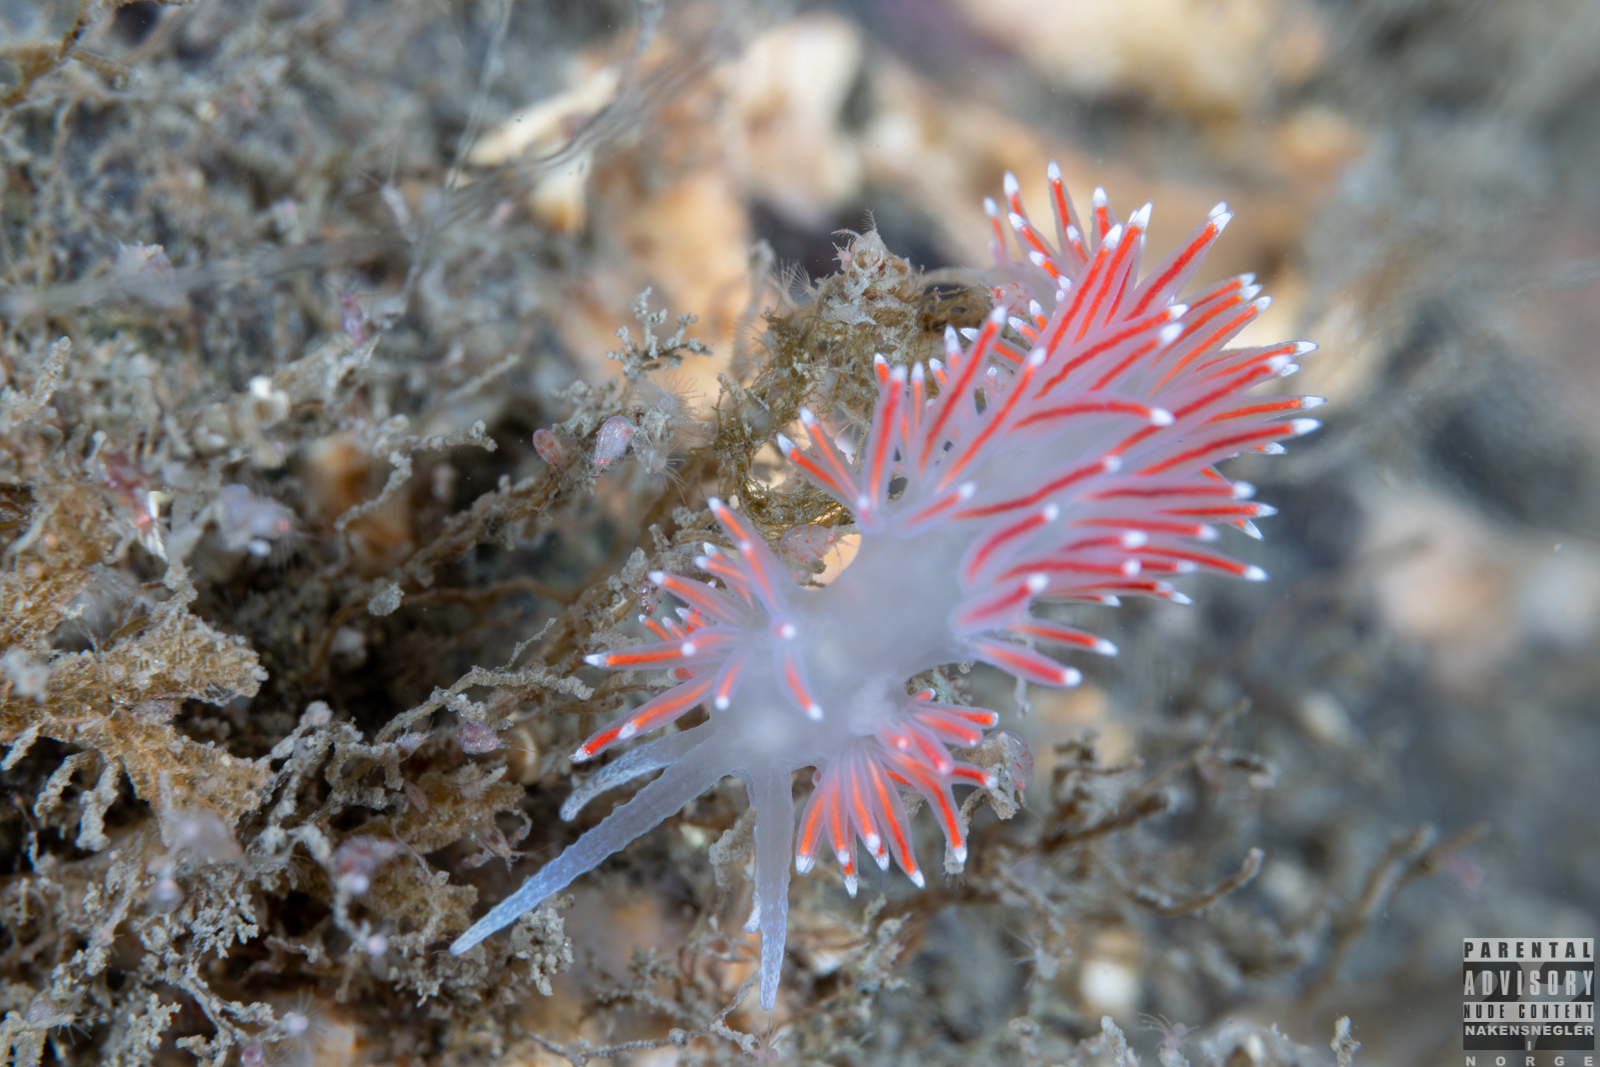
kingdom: Animalia
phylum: Mollusca
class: Gastropoda
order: Nudibranchia
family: Flabellinidae
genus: Carronella
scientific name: Carronella pellucida
